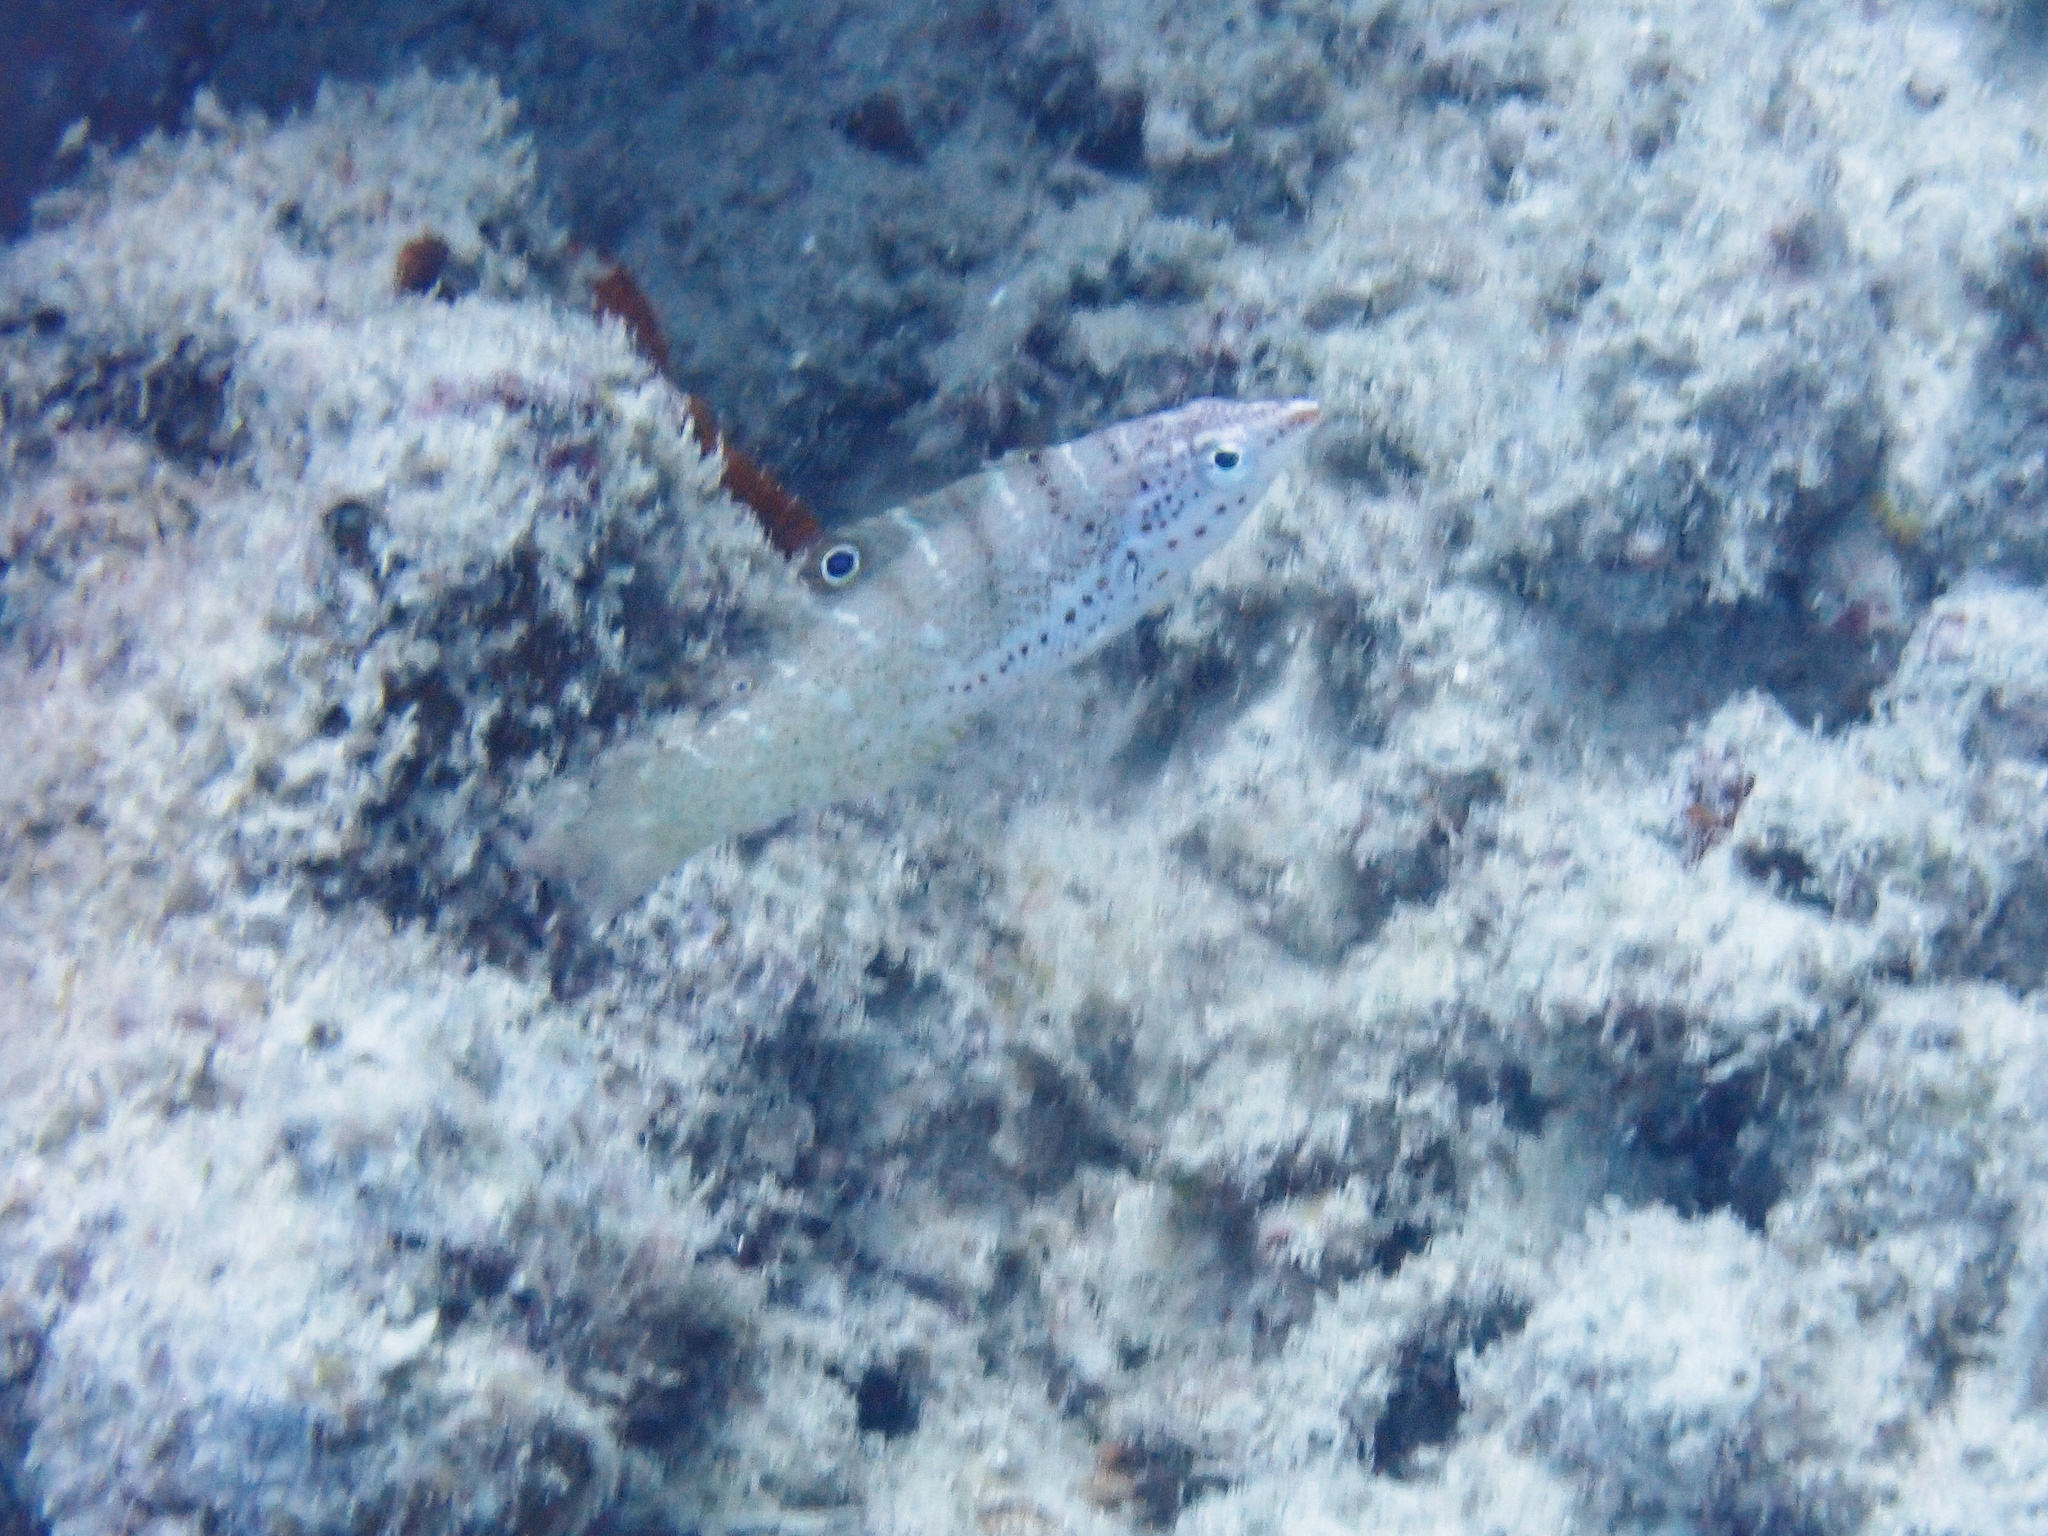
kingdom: Animalia
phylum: Chordata
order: Perciformes
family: Labridae
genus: Coris
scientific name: Coris batuensis
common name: Batu coris
